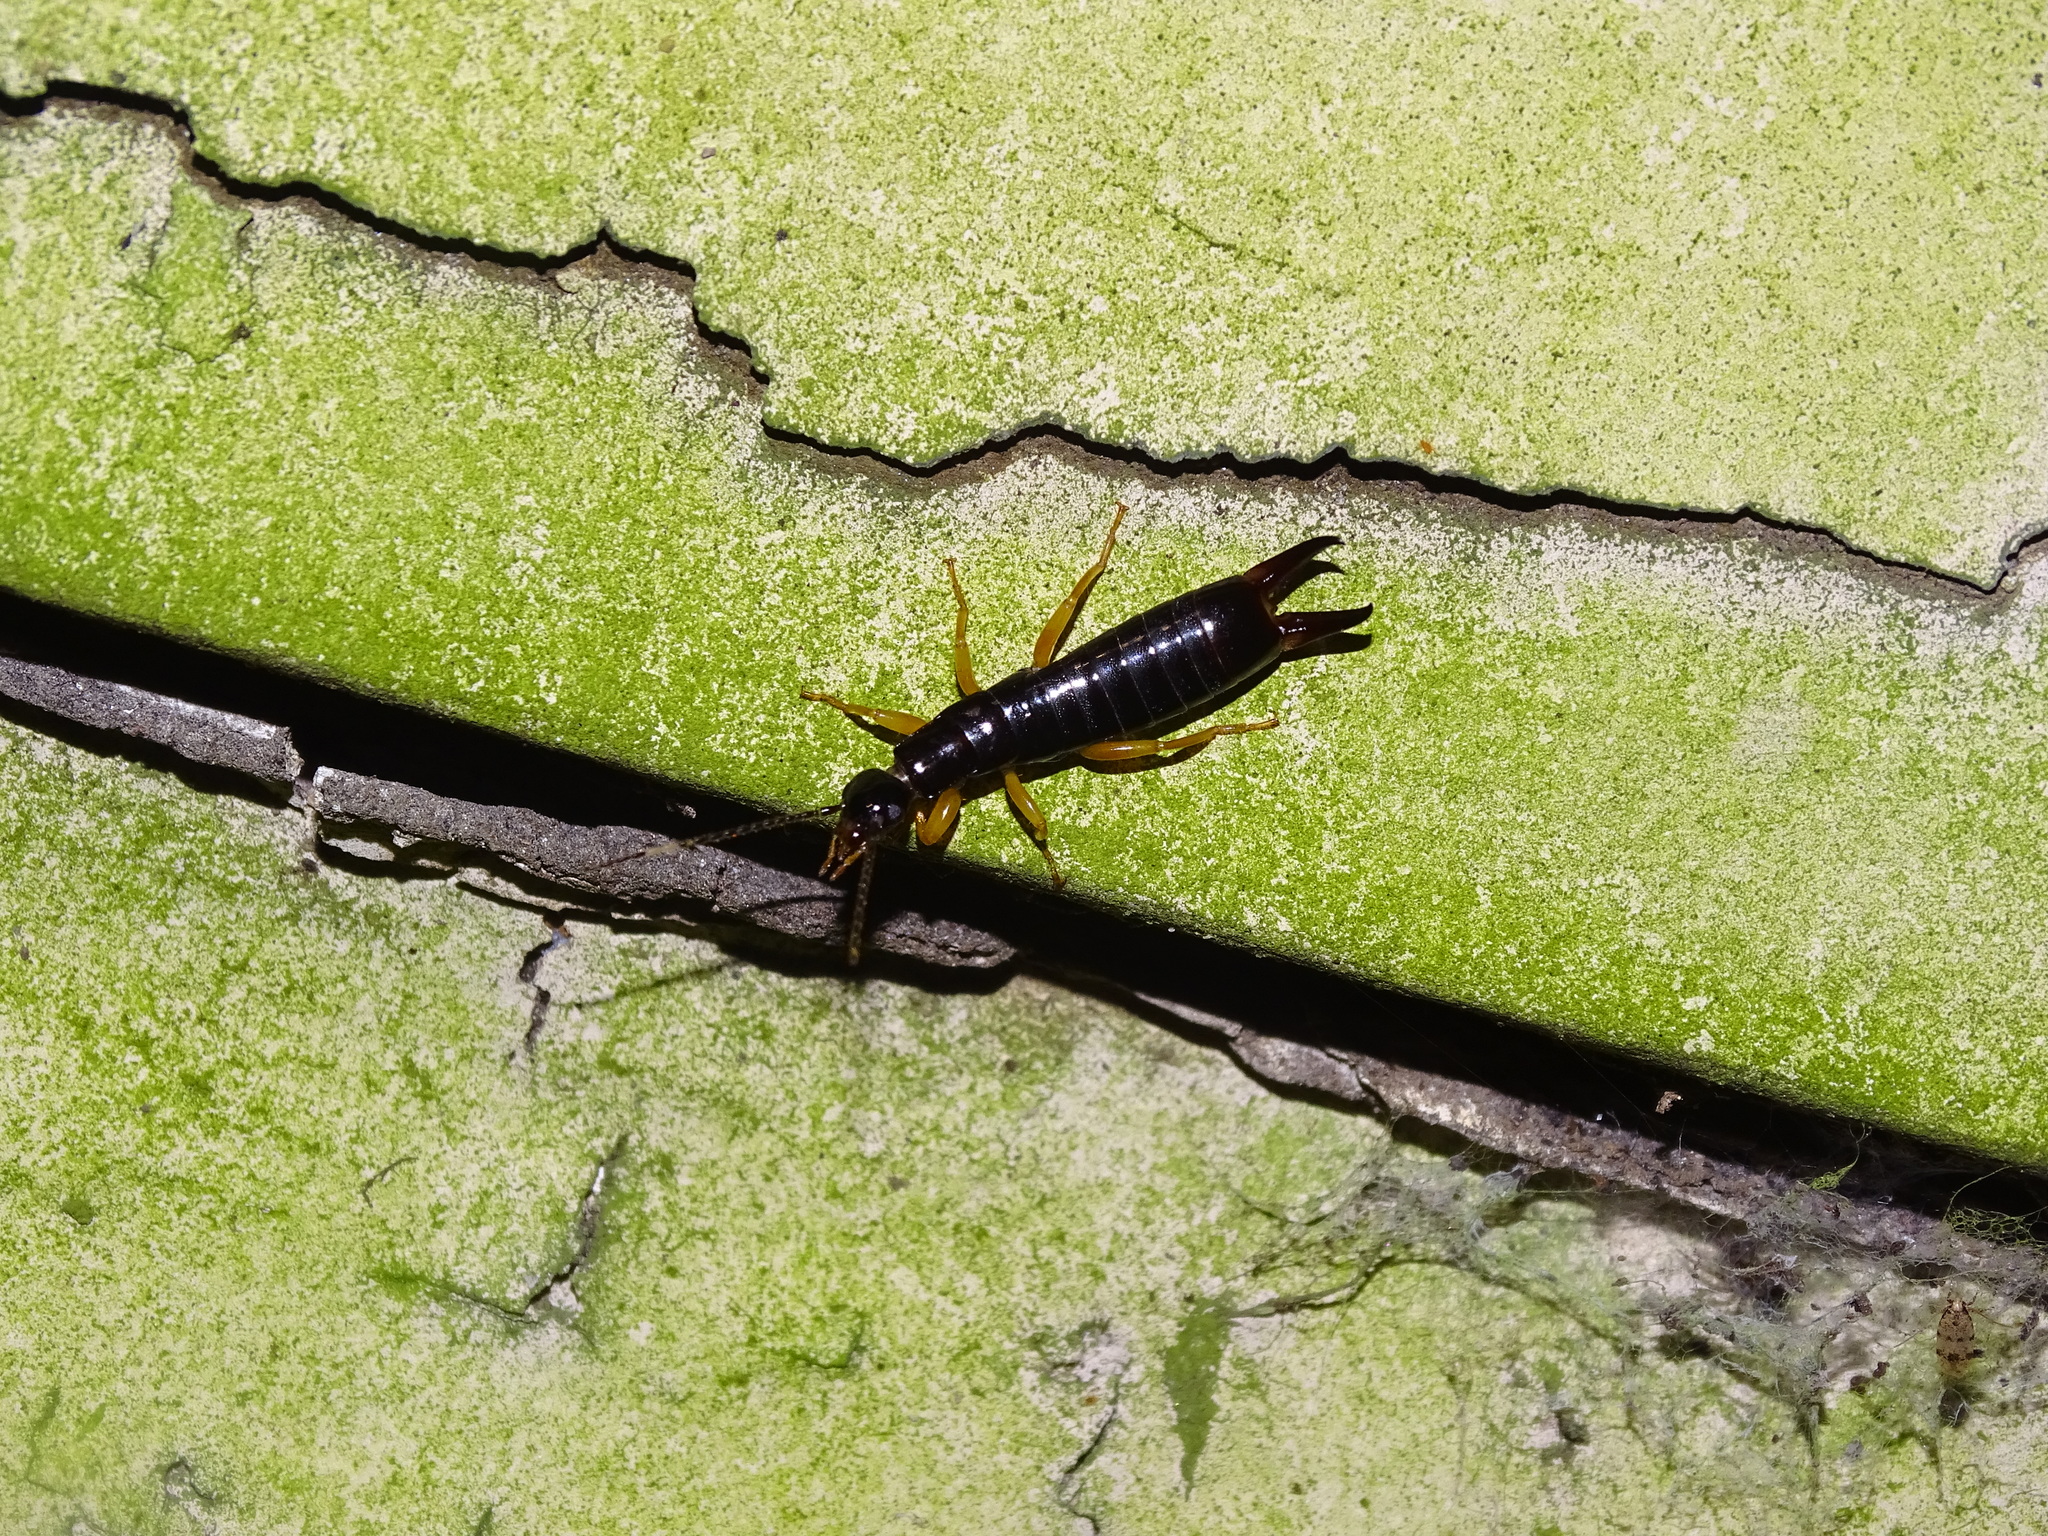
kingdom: Animalia
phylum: Arthropoda
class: Insecta
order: Dermaptera
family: Anisolabididae
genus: Euborellia
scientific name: Euborellia arcanum
